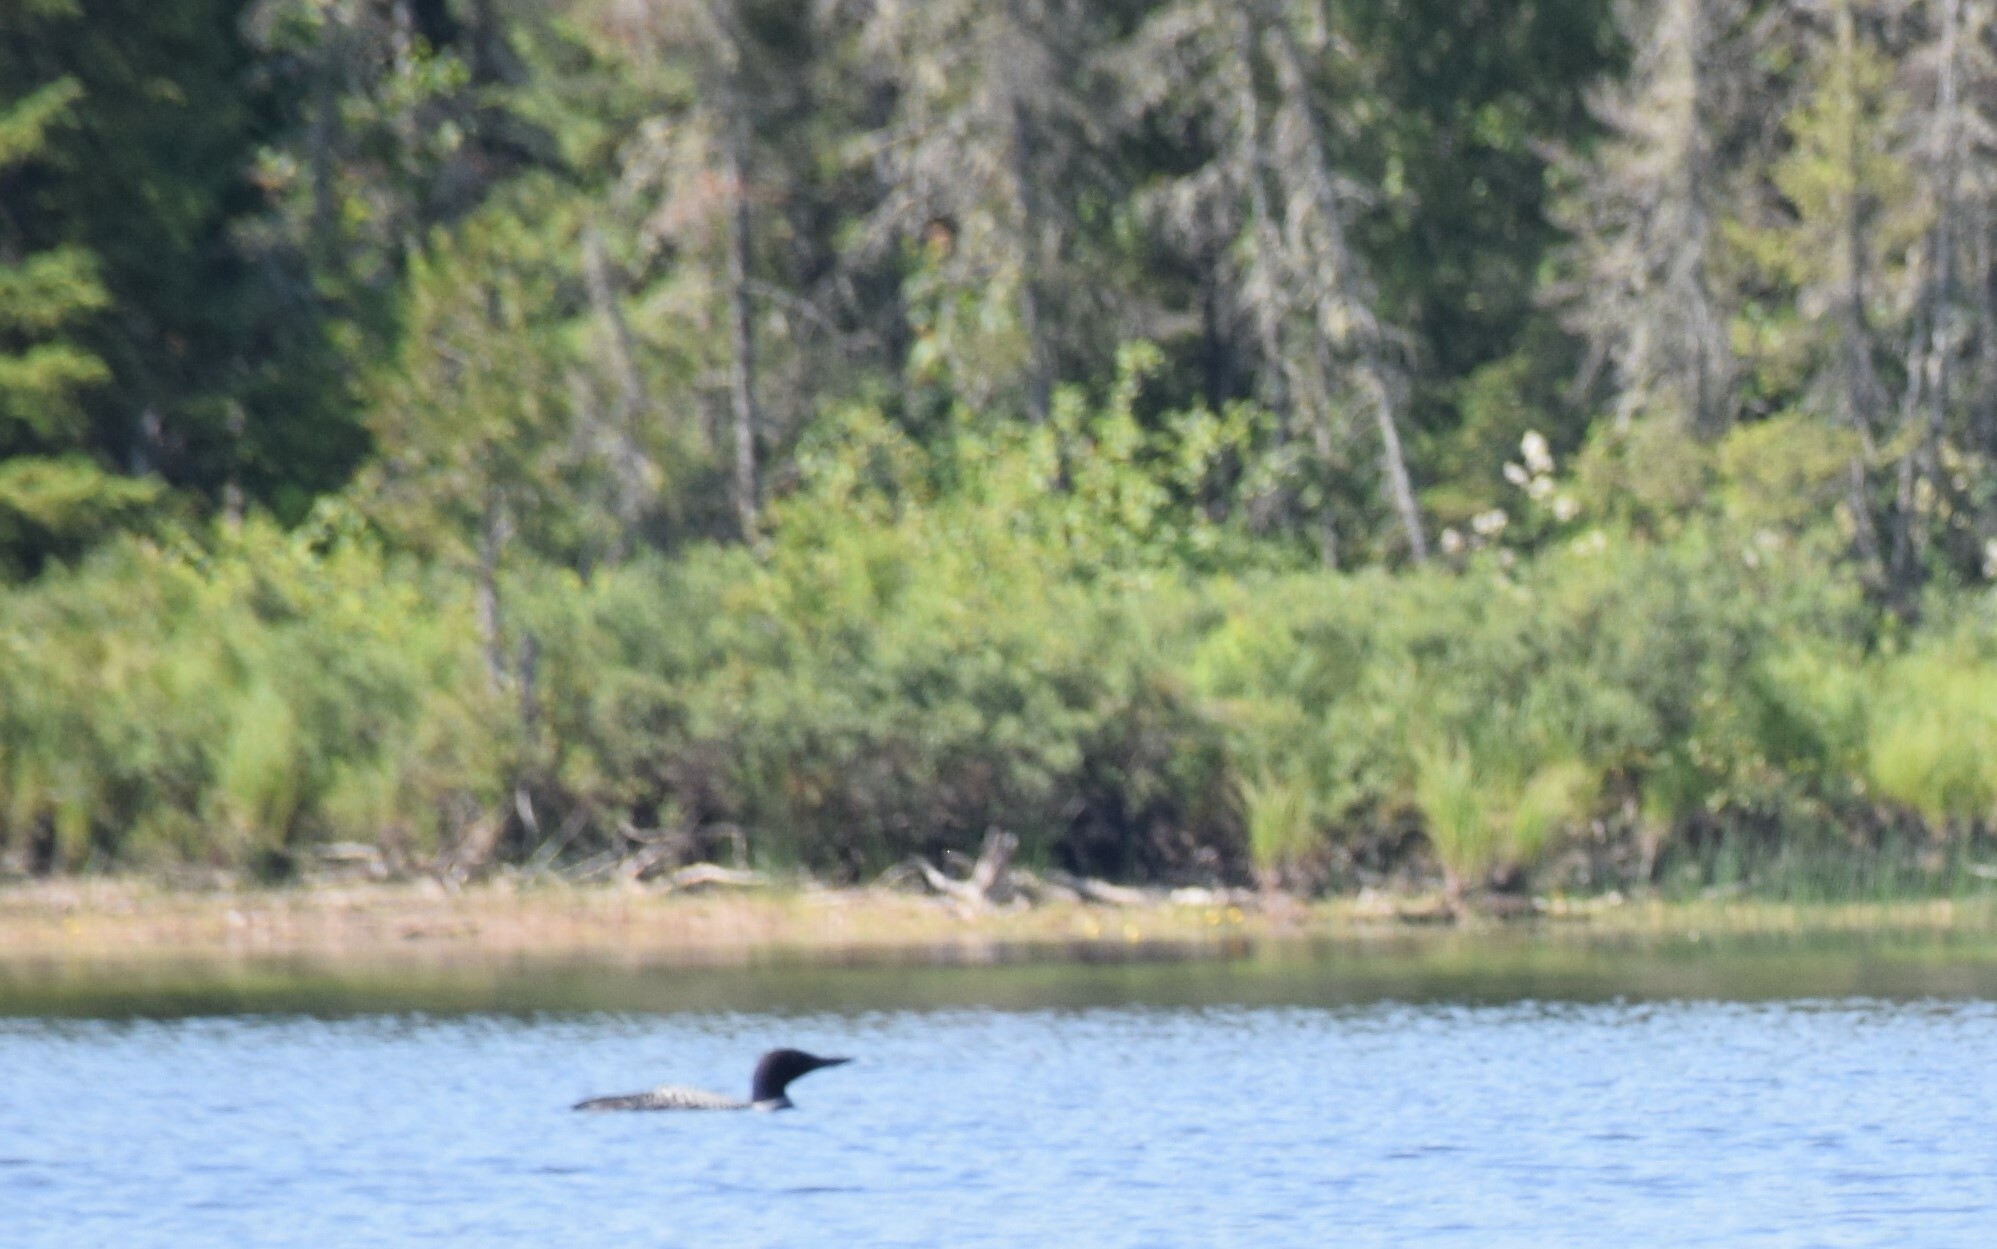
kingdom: Animalia
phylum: Chordata
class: Aves
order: Gaviiformes
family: Gaviidae
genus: Gavia
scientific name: Gavia immer
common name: Common loon
